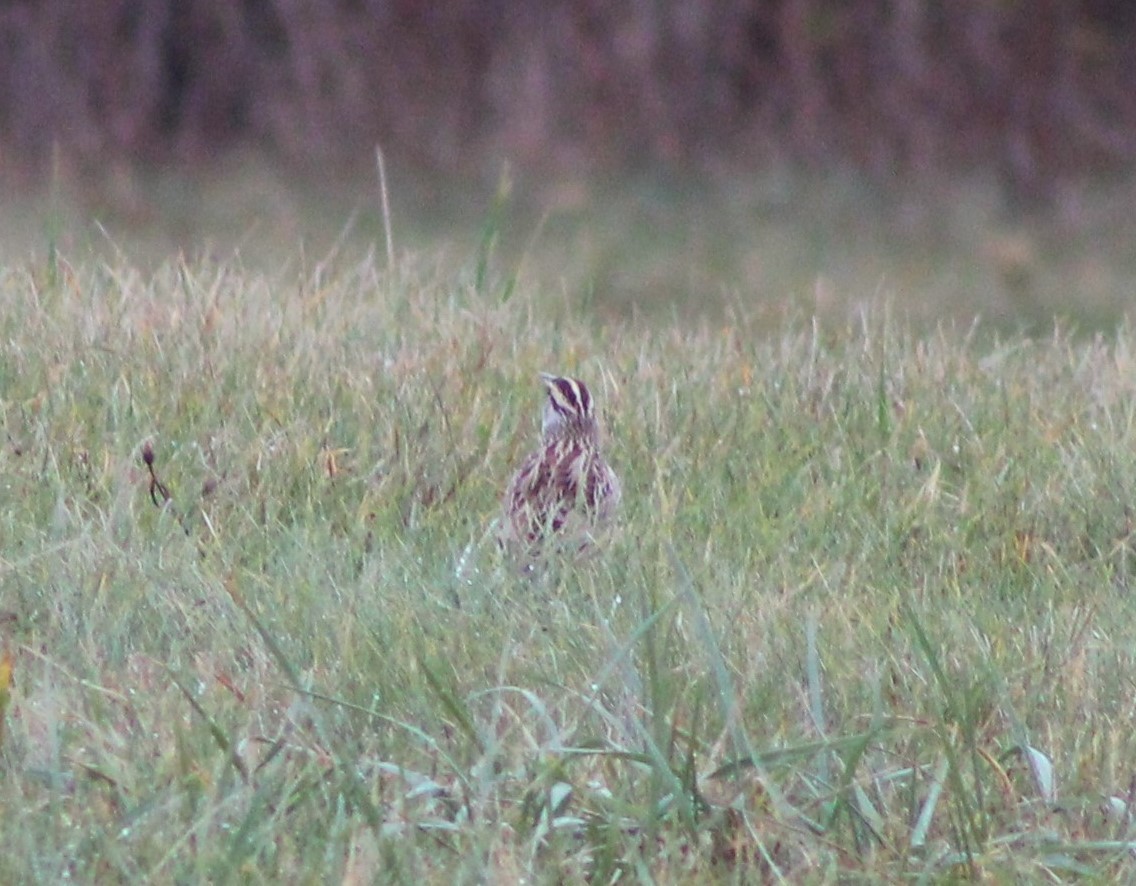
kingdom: Animalia
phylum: Chordata
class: Aves
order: Passeriformes
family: Icteridae
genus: Sturnella
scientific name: Sturnella magna
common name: Eastern meadowlark
